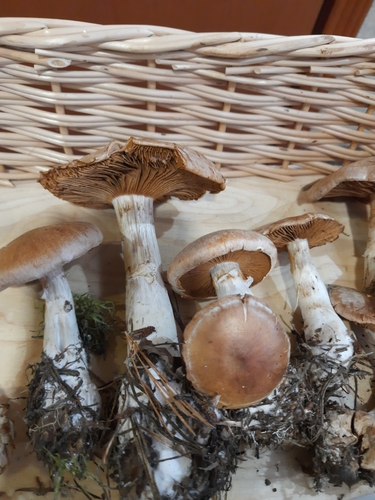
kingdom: Fungi
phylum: Basidiomycota
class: Agaricomycetes
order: Agaricales
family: Cortinariaceae
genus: Cortinarius
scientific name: Cortinarius
